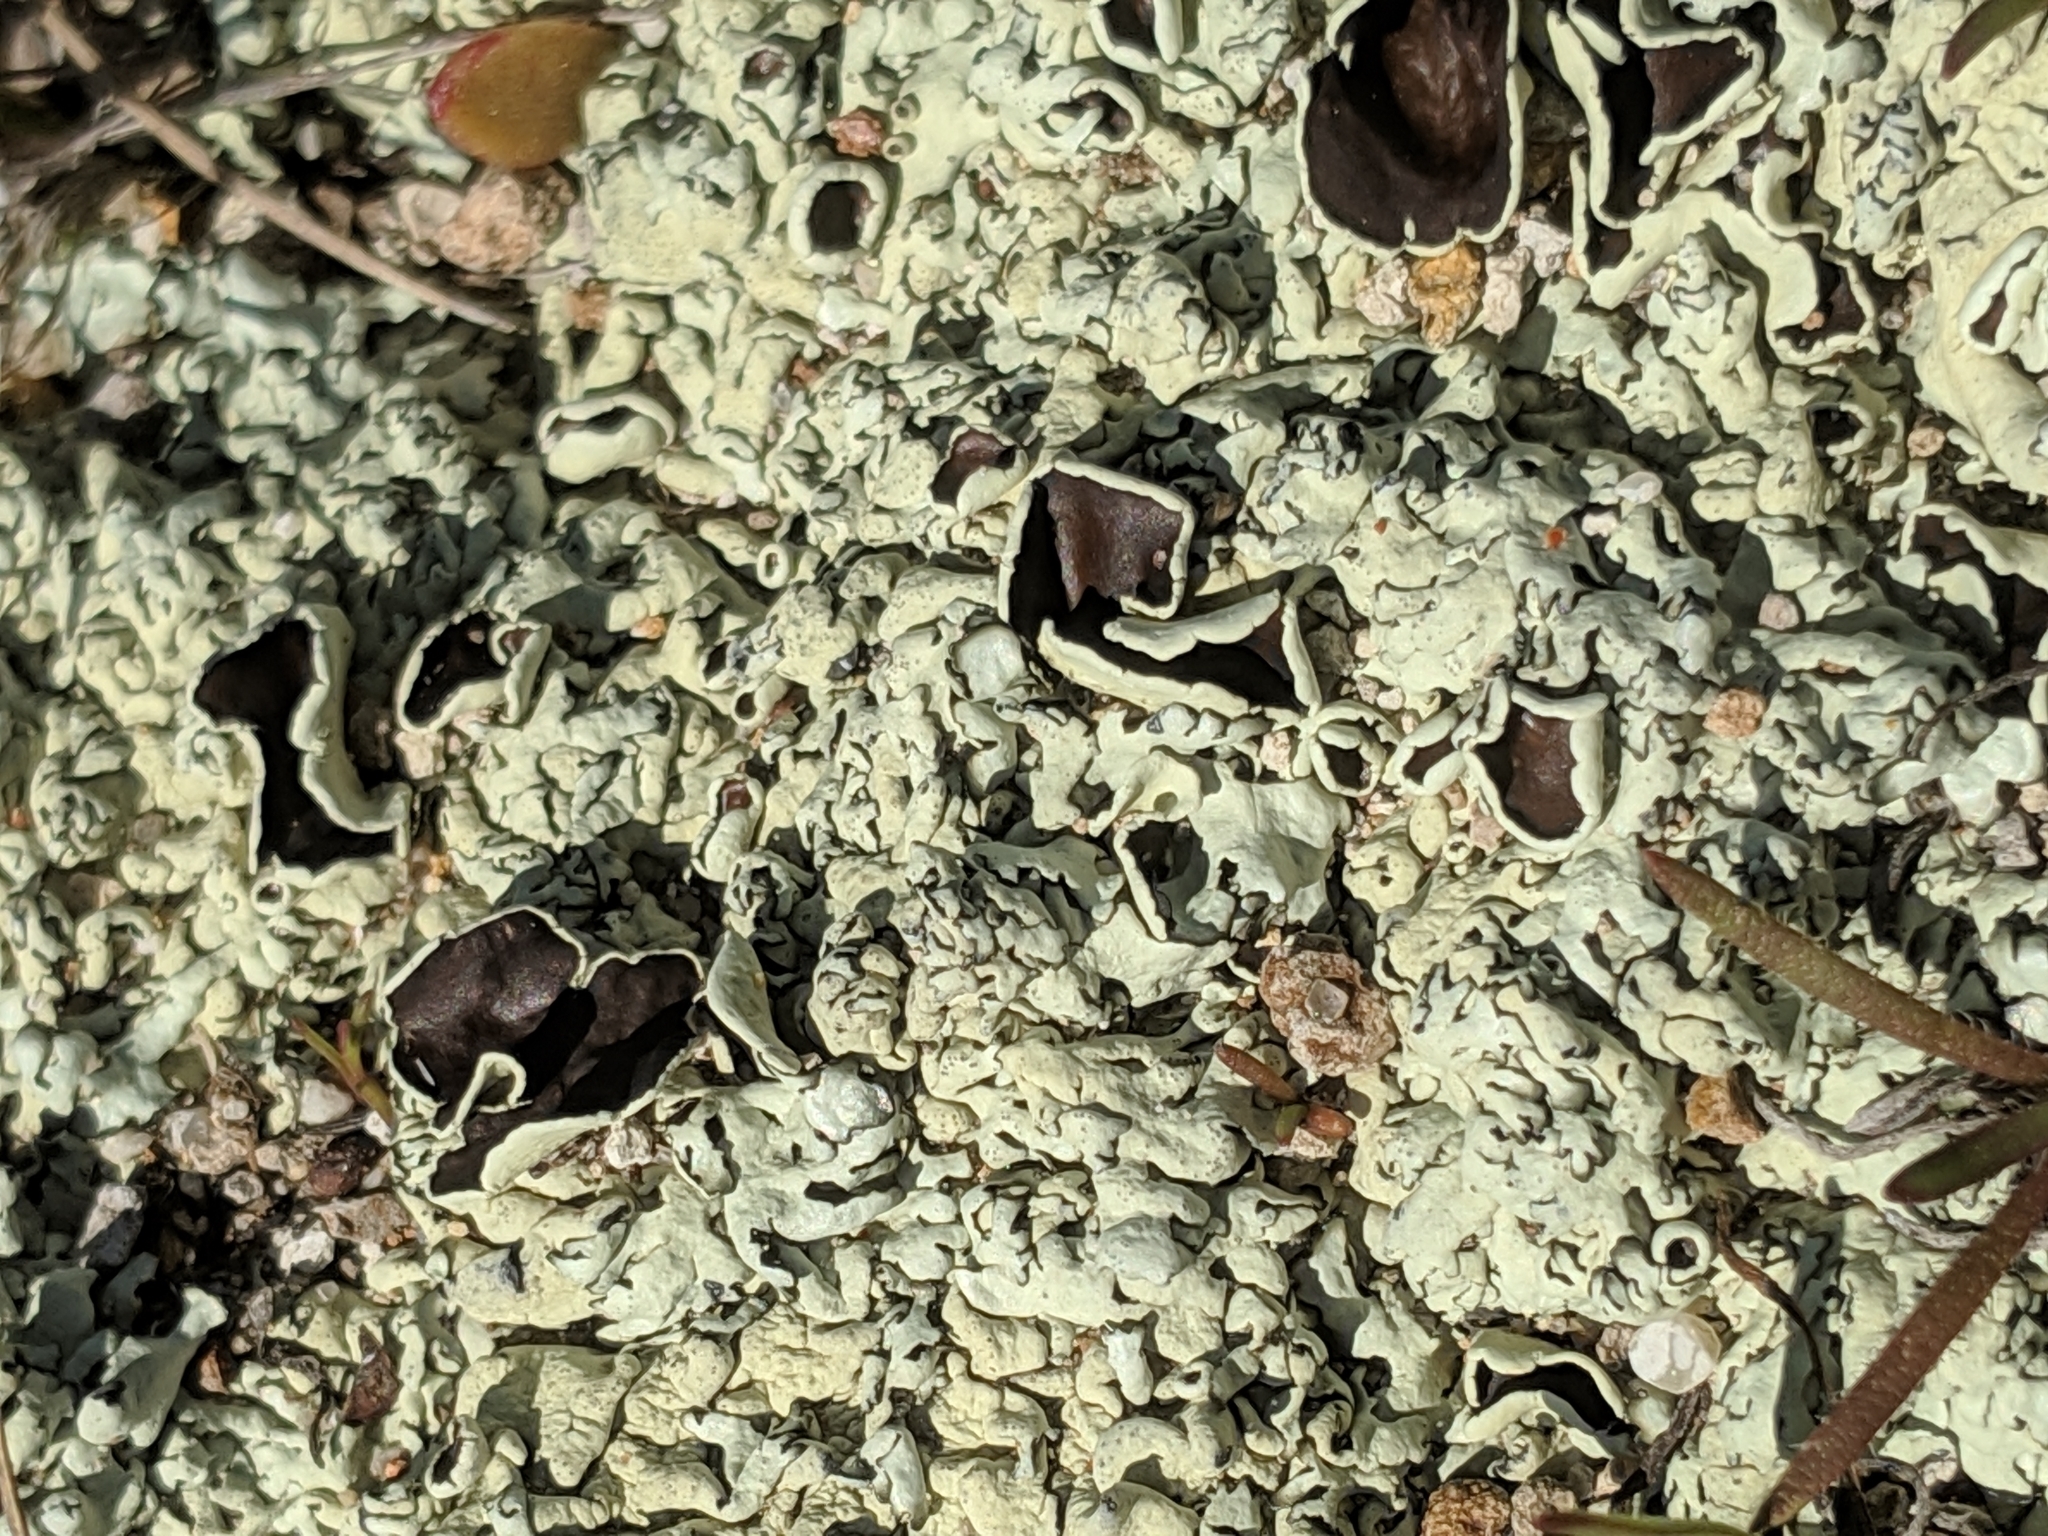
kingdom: Fungi
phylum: Ascomycota
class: Lecanoromycetes
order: Lecanorales
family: Parmeliaceae
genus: Xanthoparmelia
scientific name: Xanthoparmelia cumberlandia
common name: Cumberland rock shield
